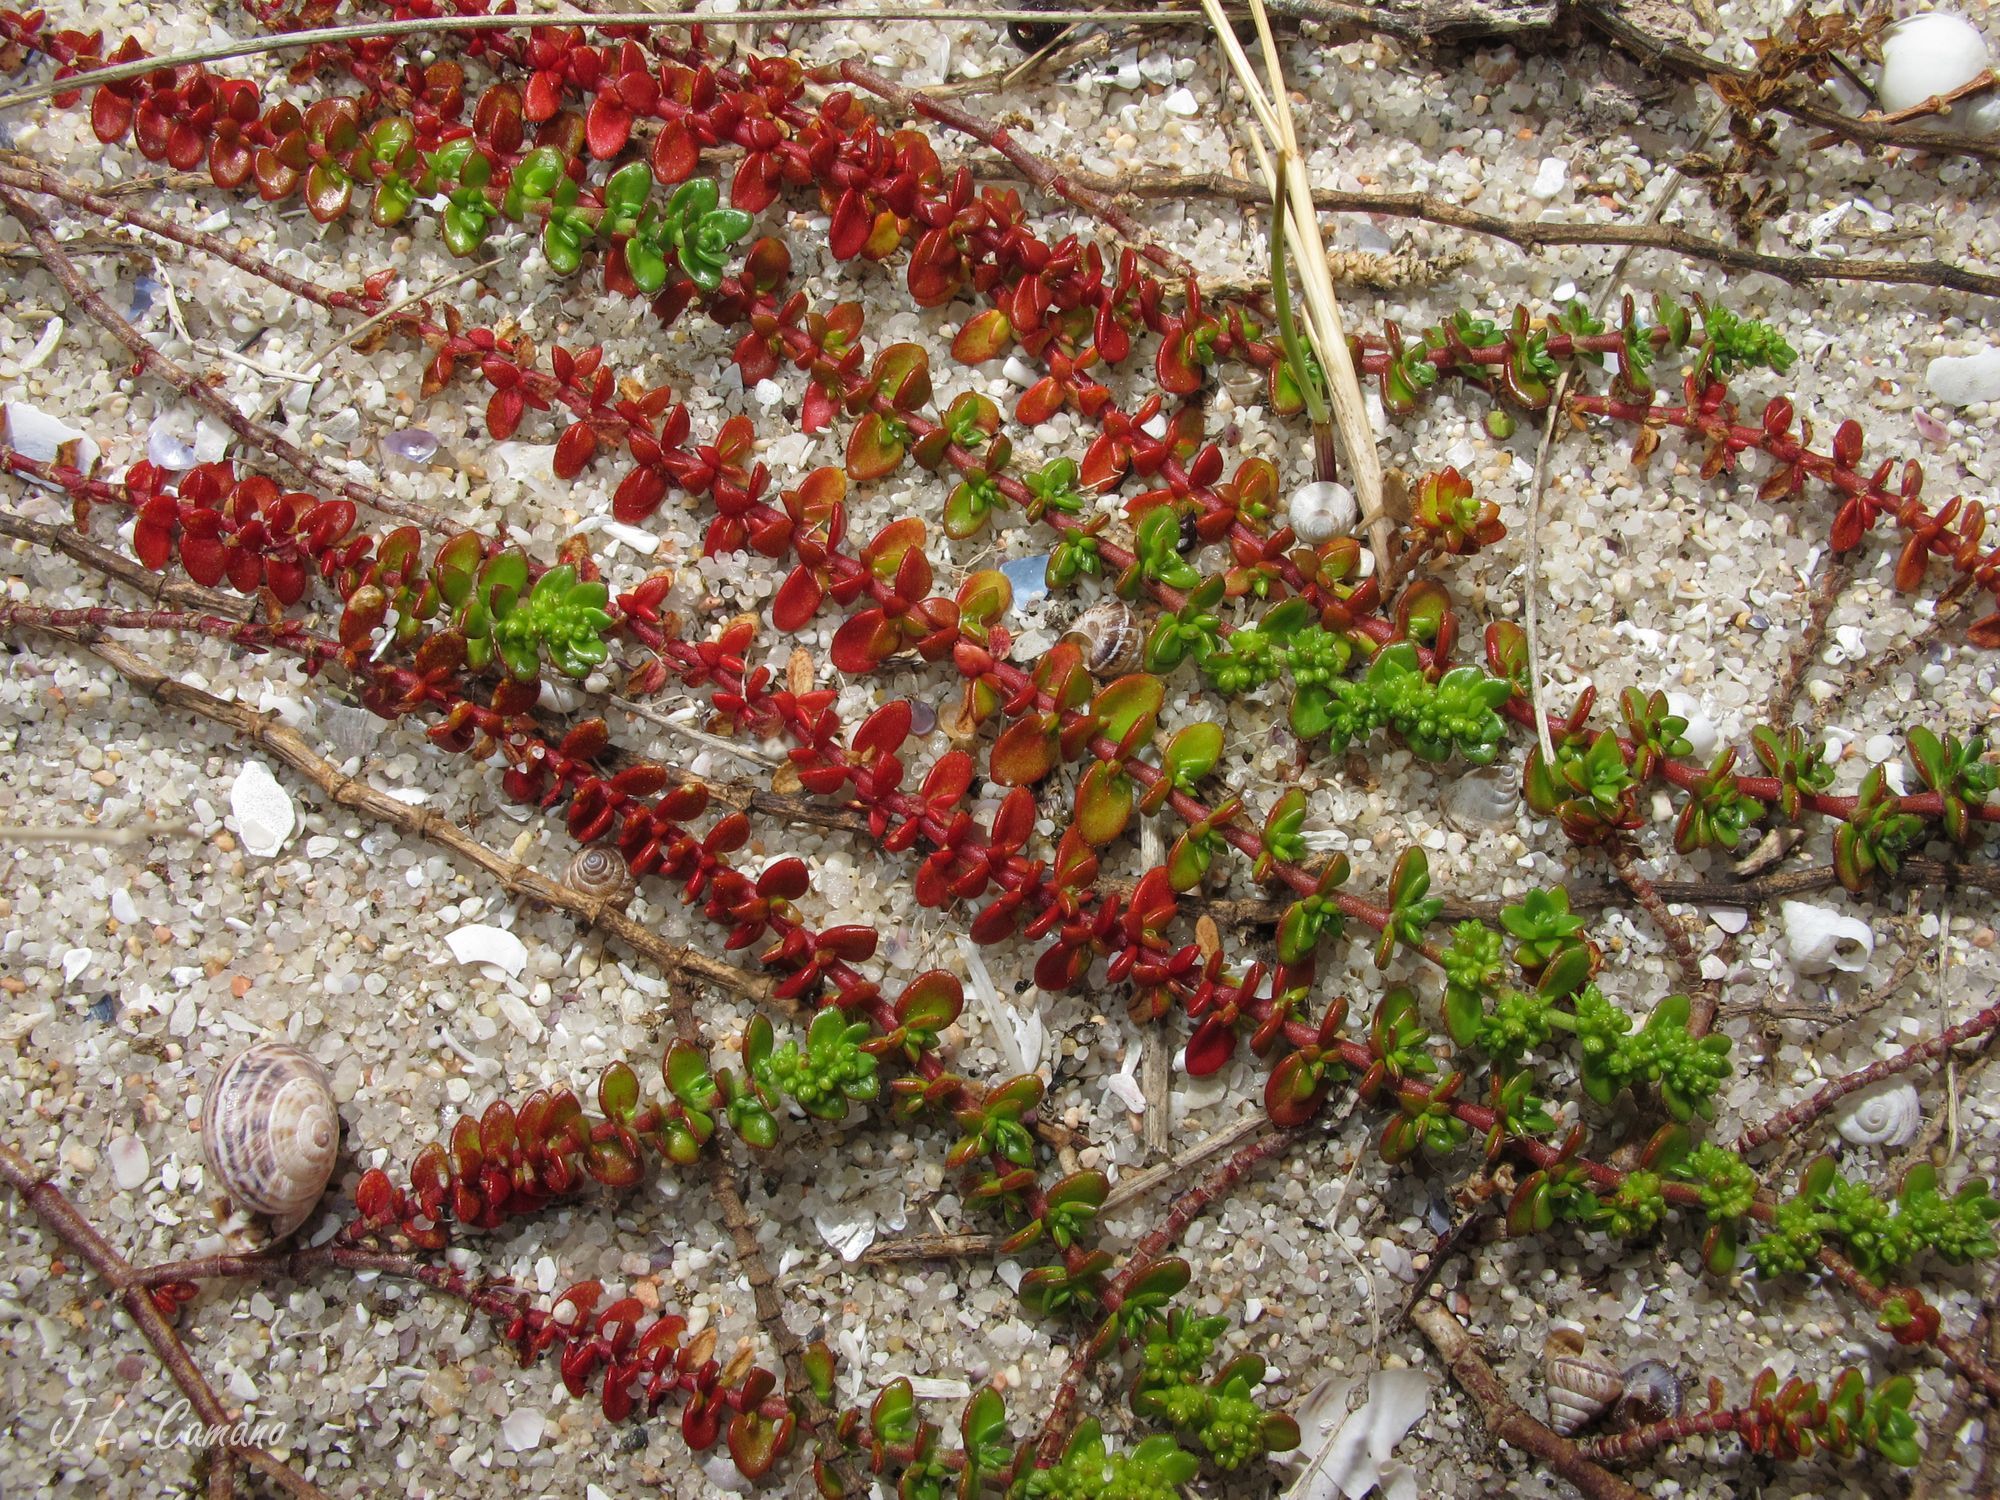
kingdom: Plantae
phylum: Tracheophyta
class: Magnoliopsida
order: Caryophyllales
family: Caryophyllaceae
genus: Herniaria
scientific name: Herniaria ciliolata
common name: Fringed rupture-wort
